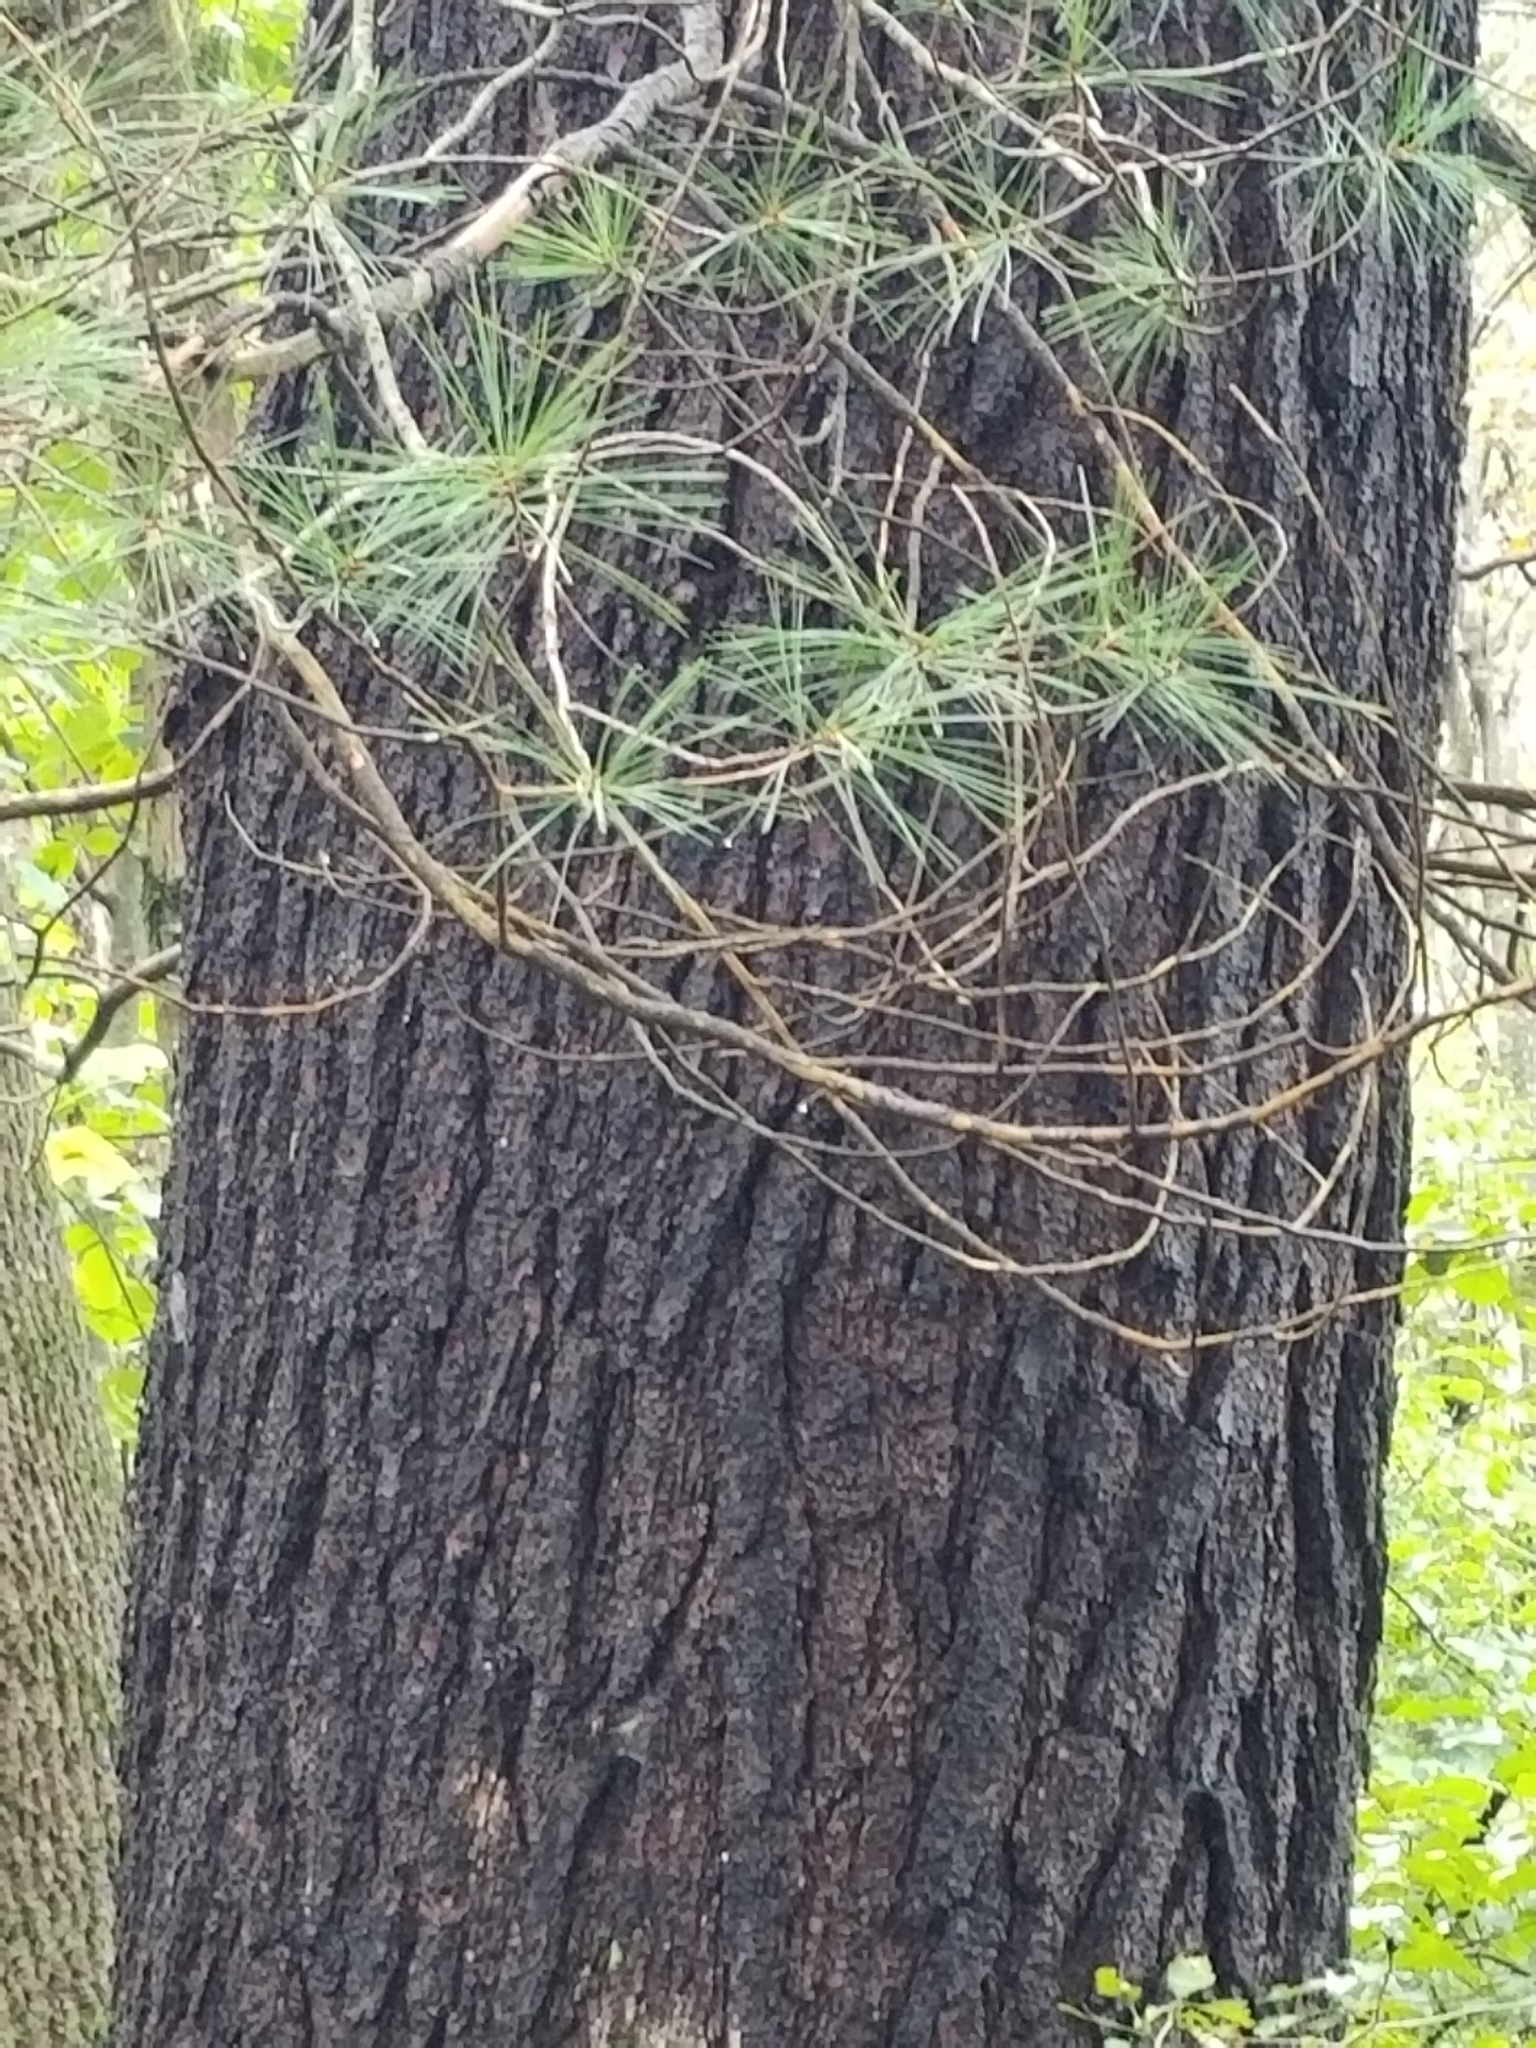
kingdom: Plantae
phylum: Tracheophyta
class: Pinopsida
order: Pinales
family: Pinaceae
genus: Pinus
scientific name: Pinus strobus
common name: Weymouth pine
